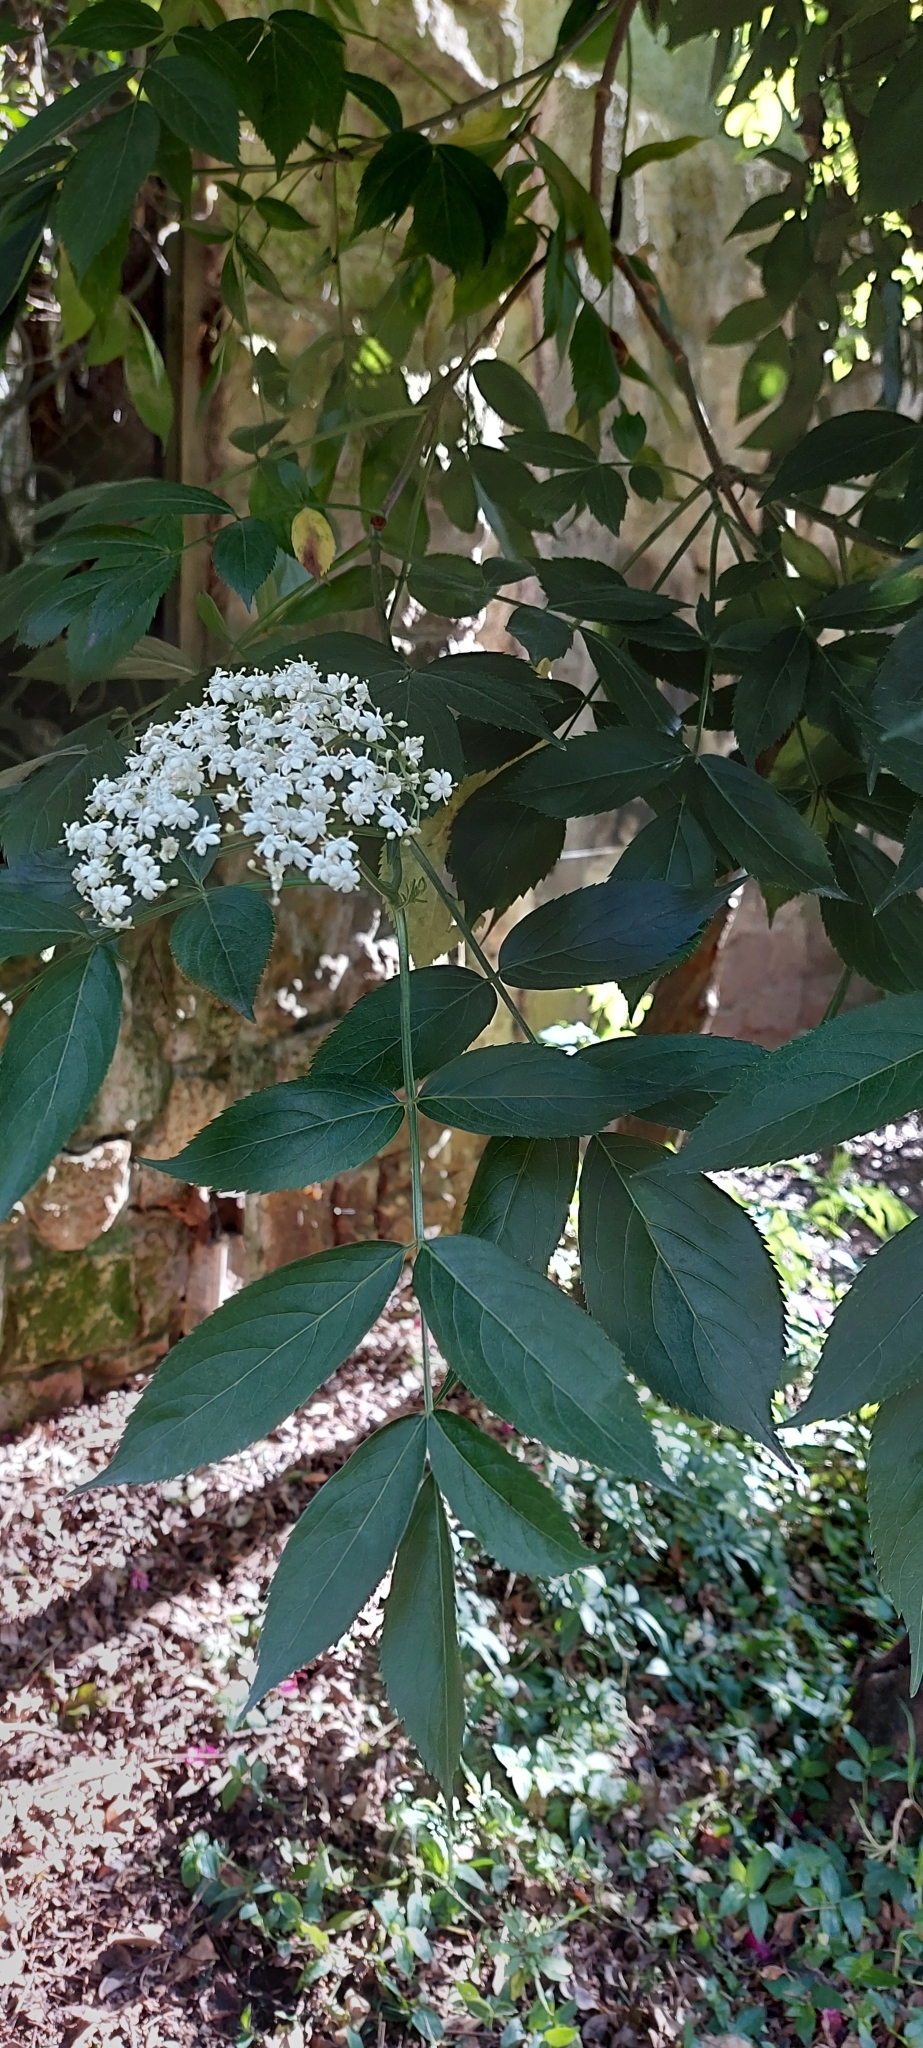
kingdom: Plantae
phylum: Tracheophyta
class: Magnoliopsida
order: Dipsacales
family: Viburnaceae
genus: Sambucus
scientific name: Sambucus nigra
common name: Elder
